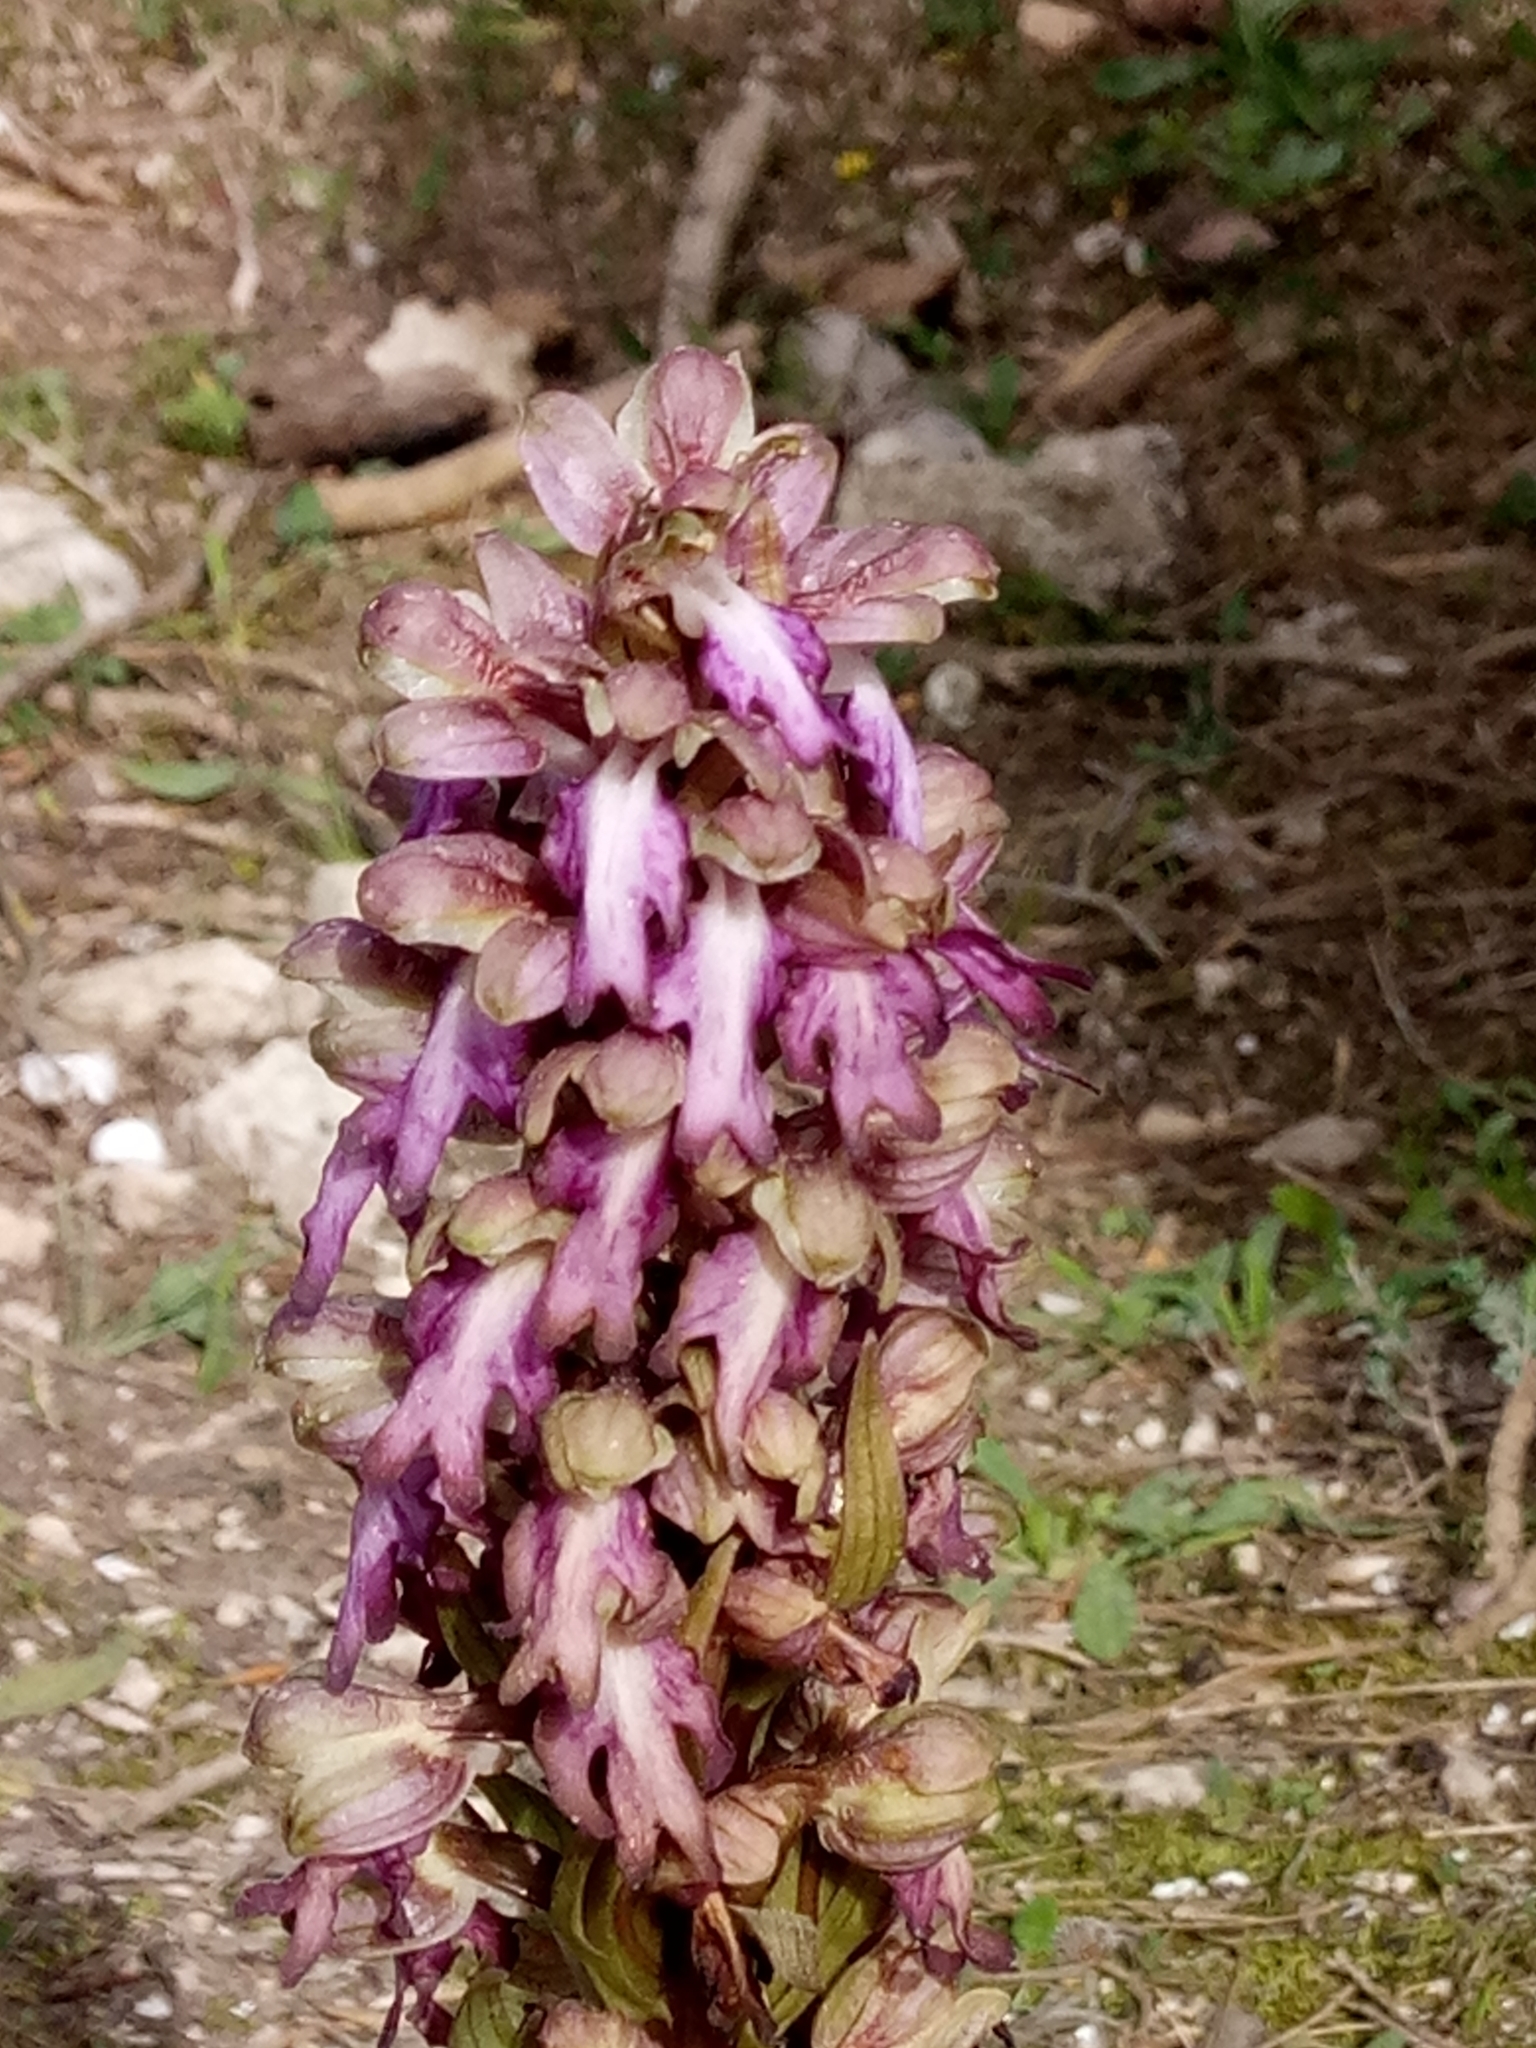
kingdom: Plantae
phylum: Tracheophyta
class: Liliopsida
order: Asparagales
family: Orchidaceae
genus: Himantoglossum
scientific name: Himantoglossum robertianum
